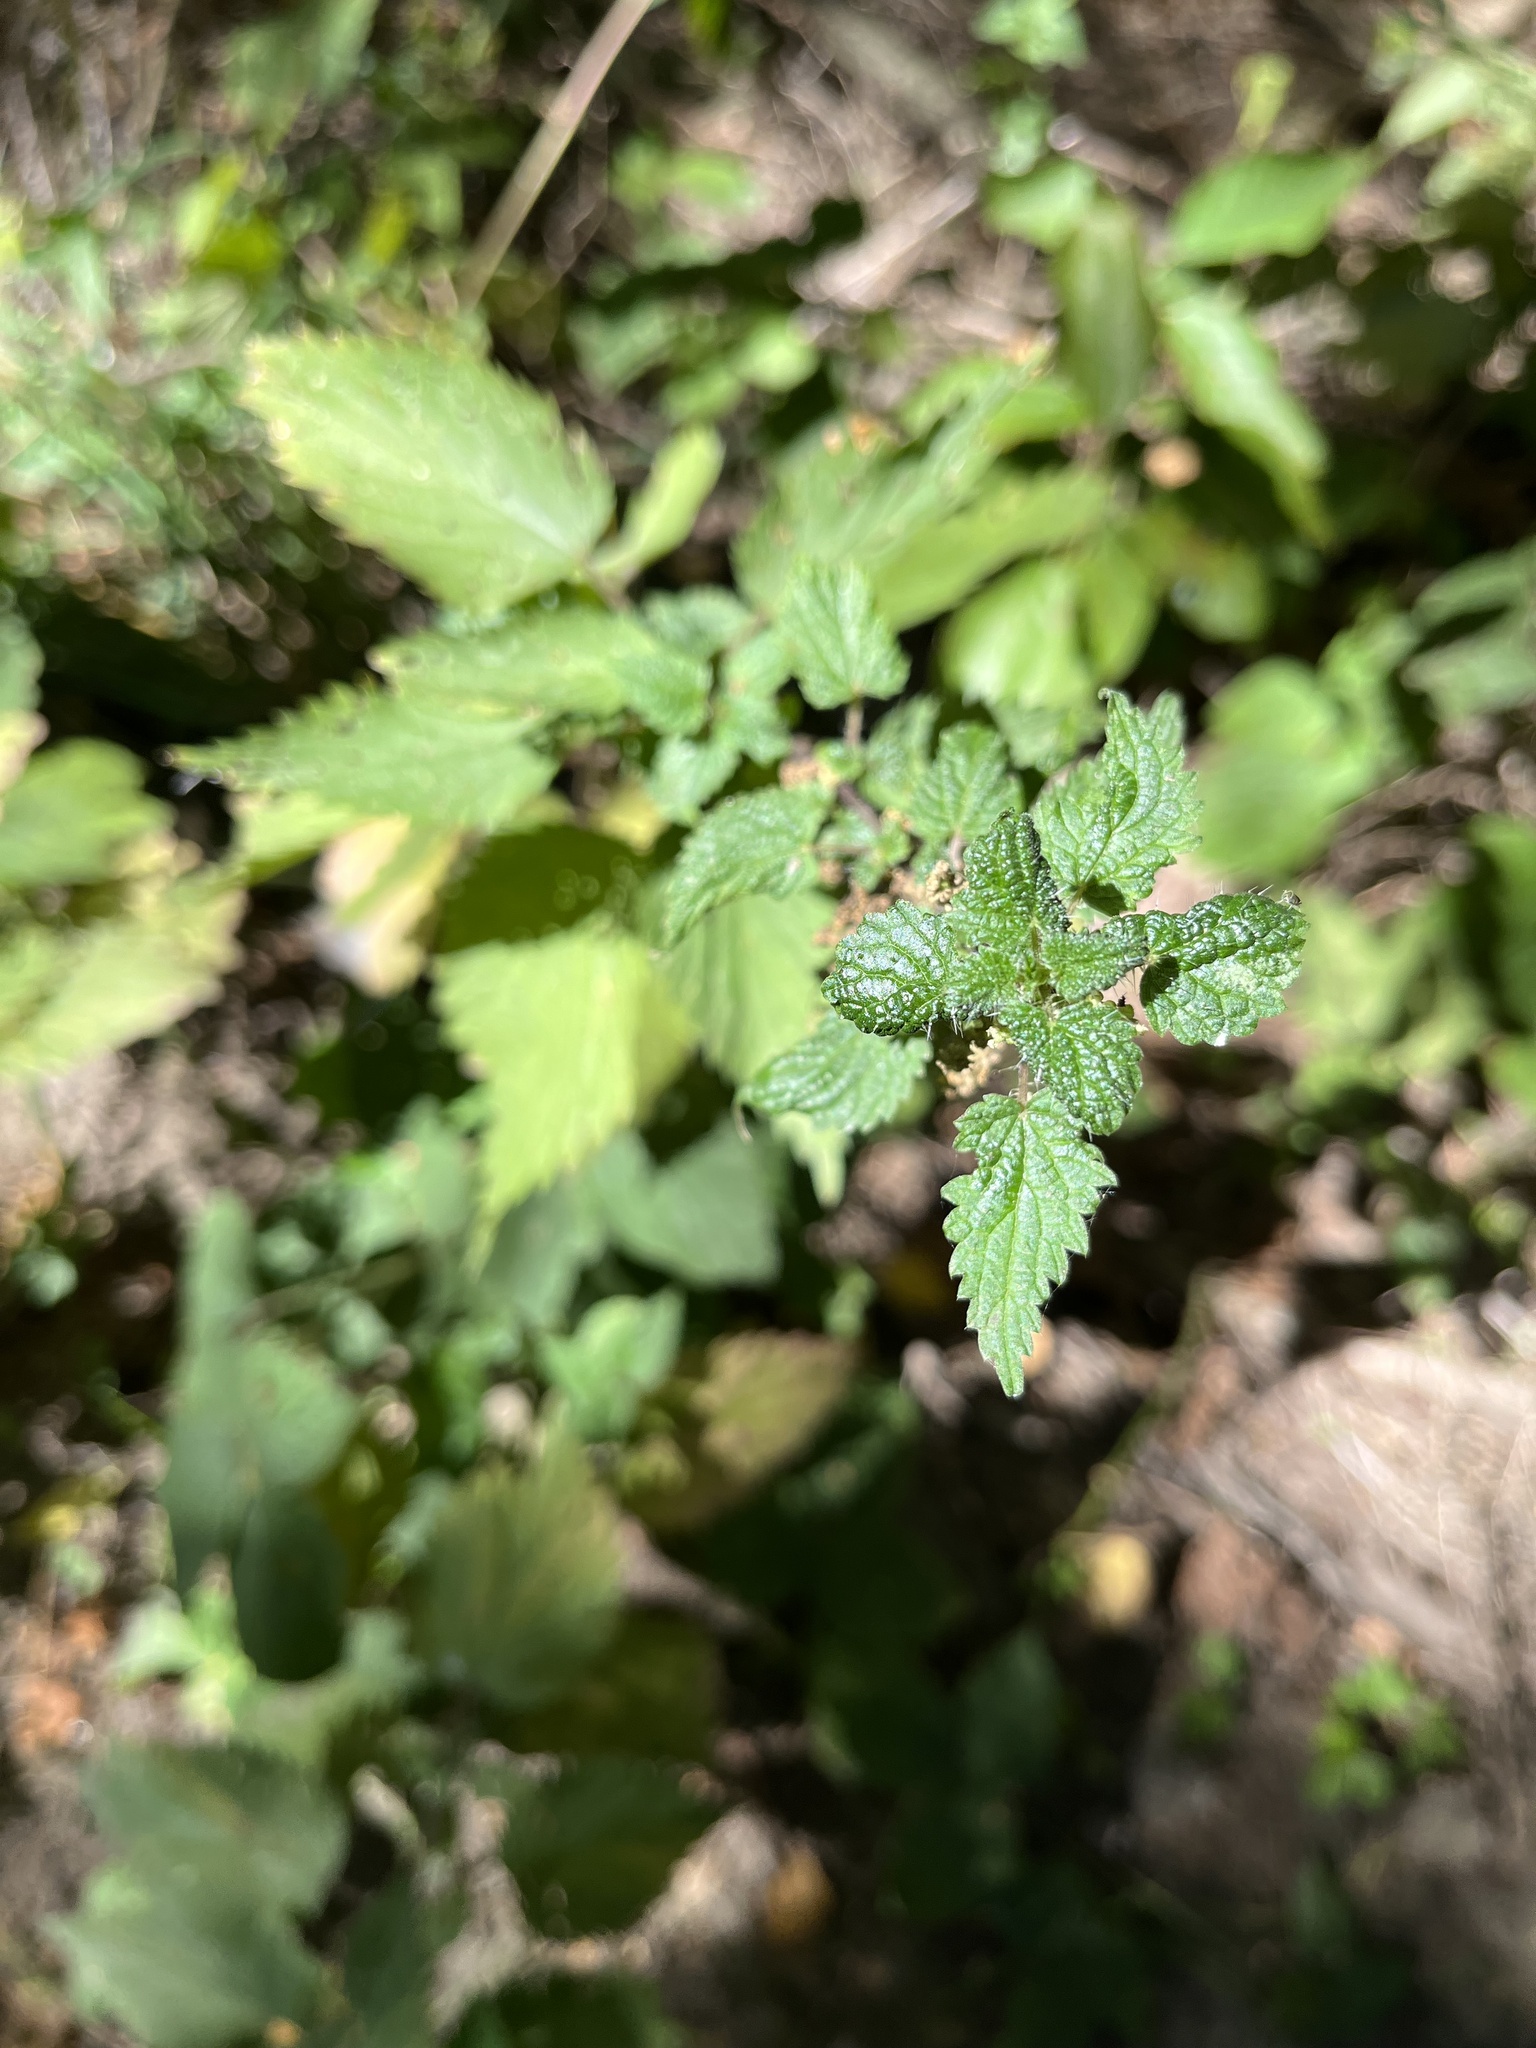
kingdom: Plantae
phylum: Tracheophyta
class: Magnoliopsida
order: Rosales
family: Urticaceae
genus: Urtica
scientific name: Urtica dioica
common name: Common nettle
